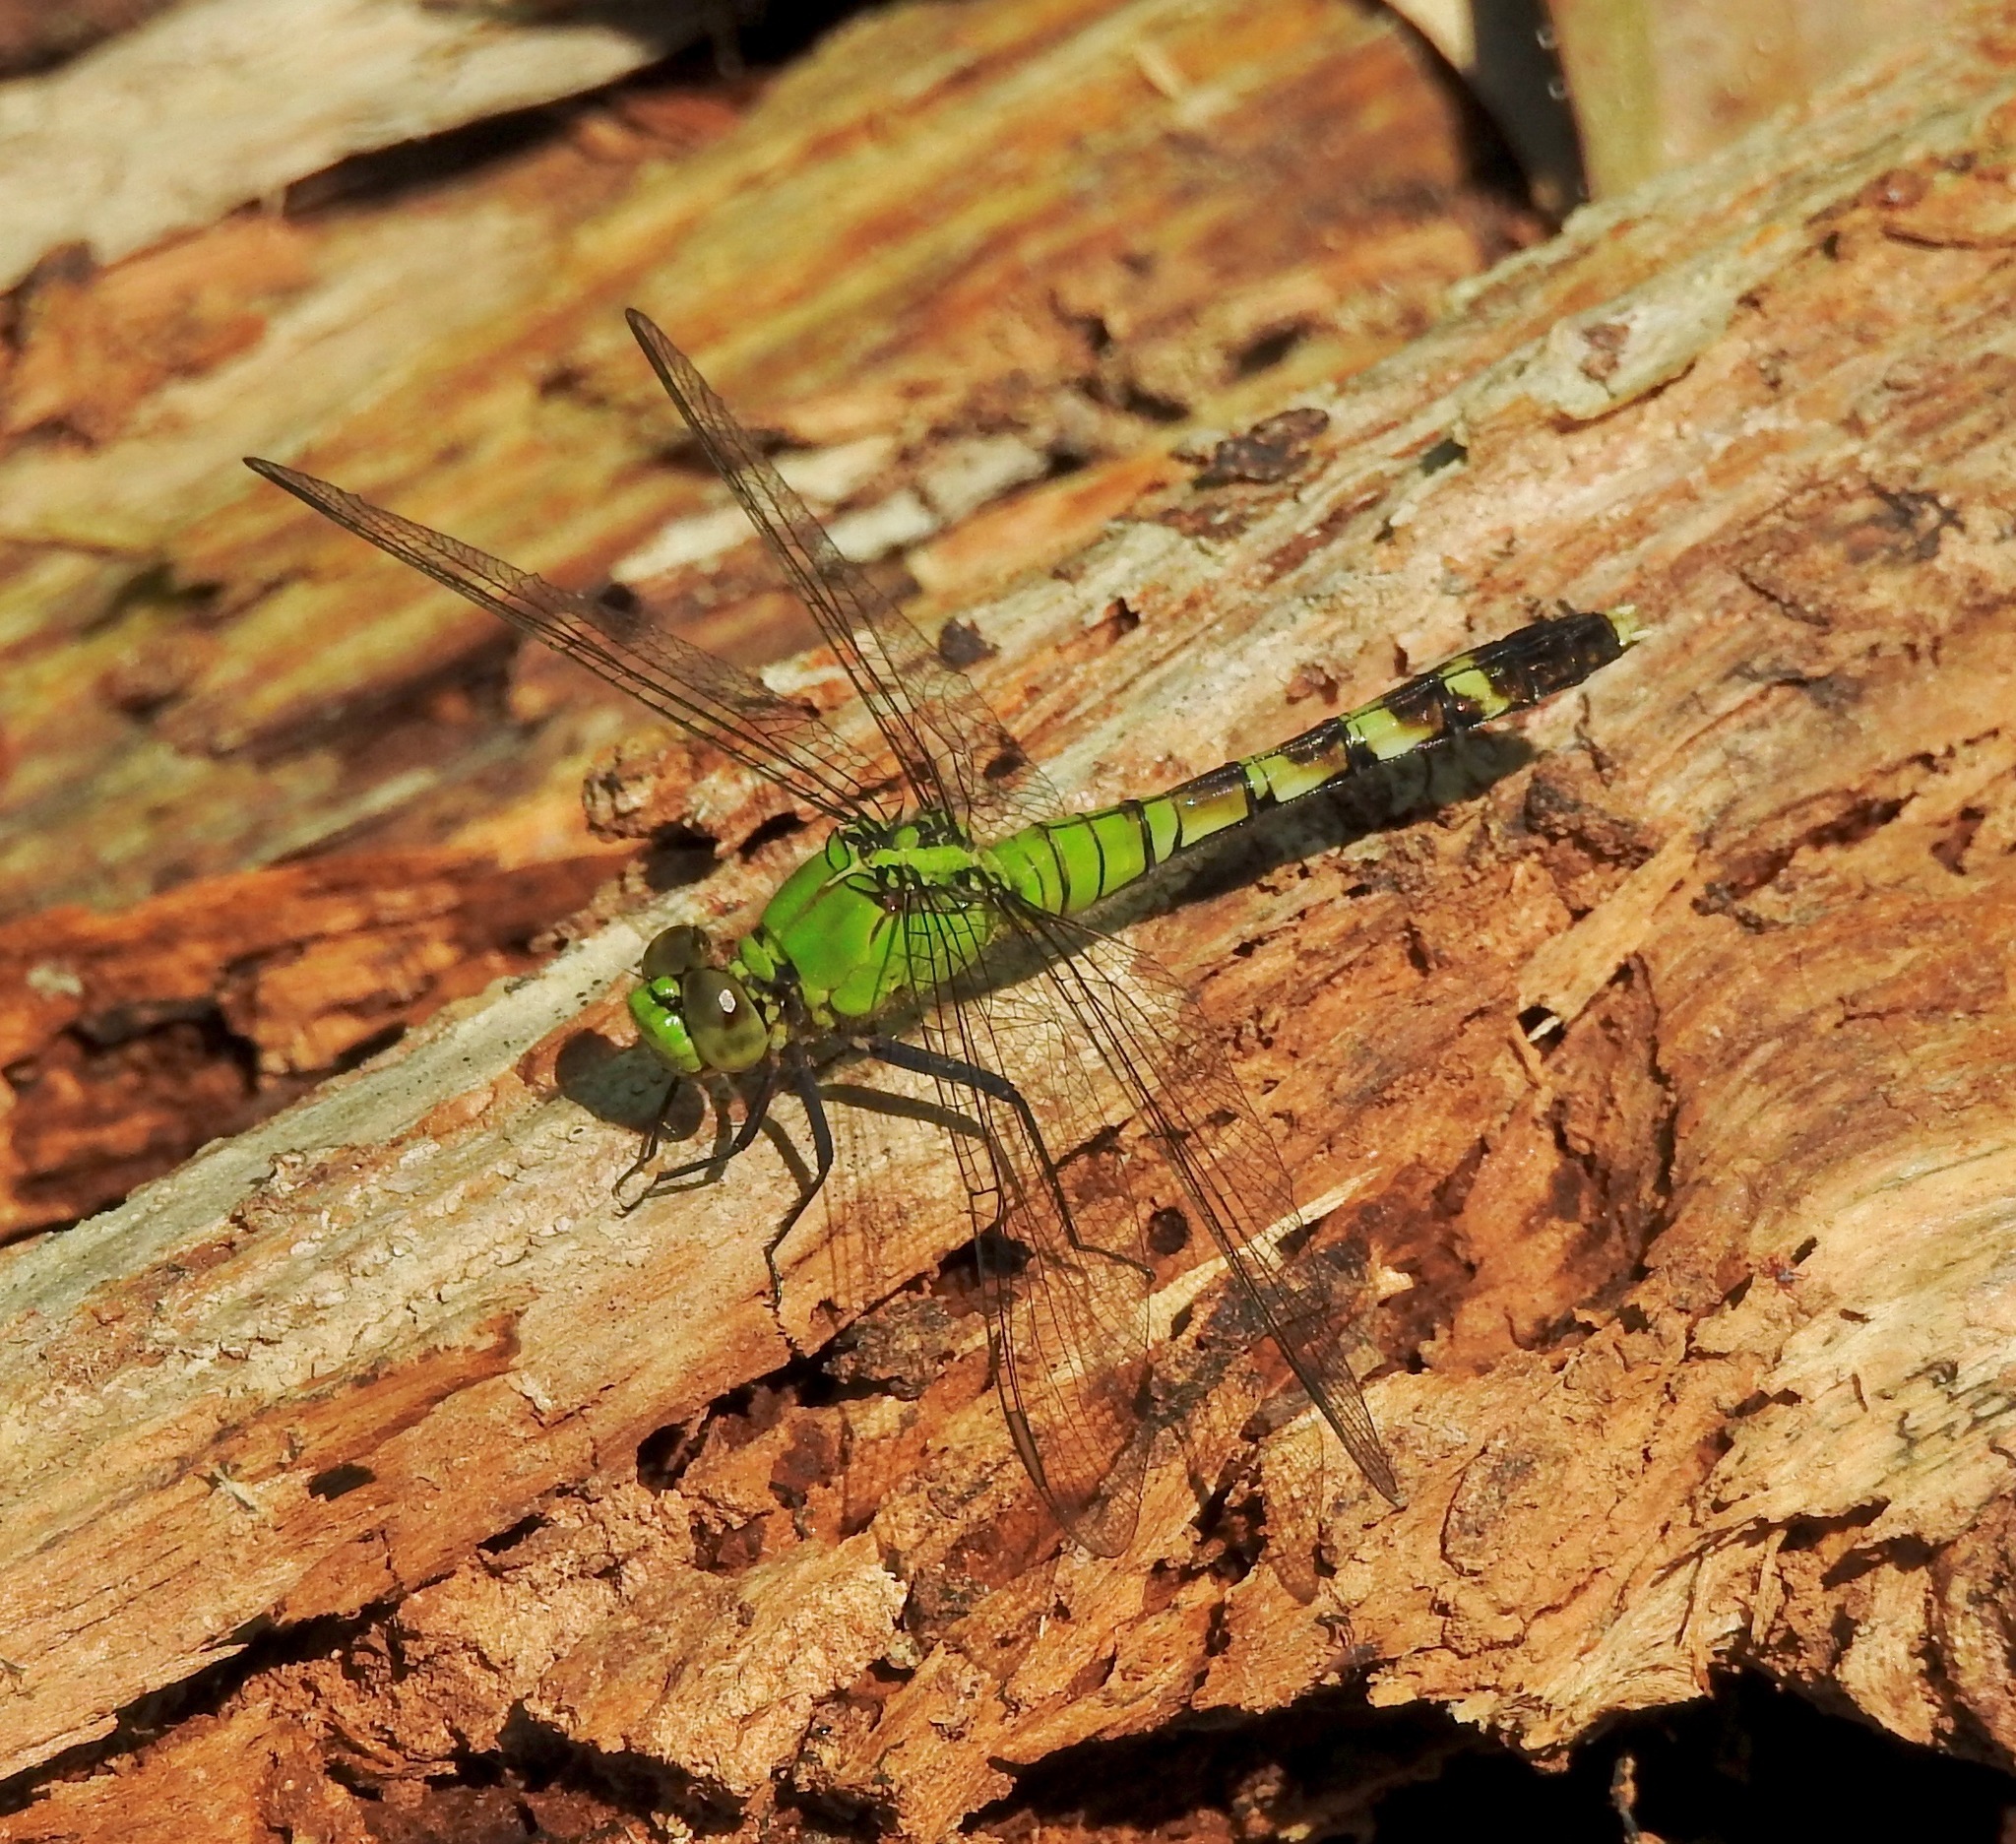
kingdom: Animalia
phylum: Arthropoda
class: Insecta
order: Odonata
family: Libellulidae
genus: Erythemis
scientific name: Erythemis simplicicollis
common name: Eastern pondhawk
